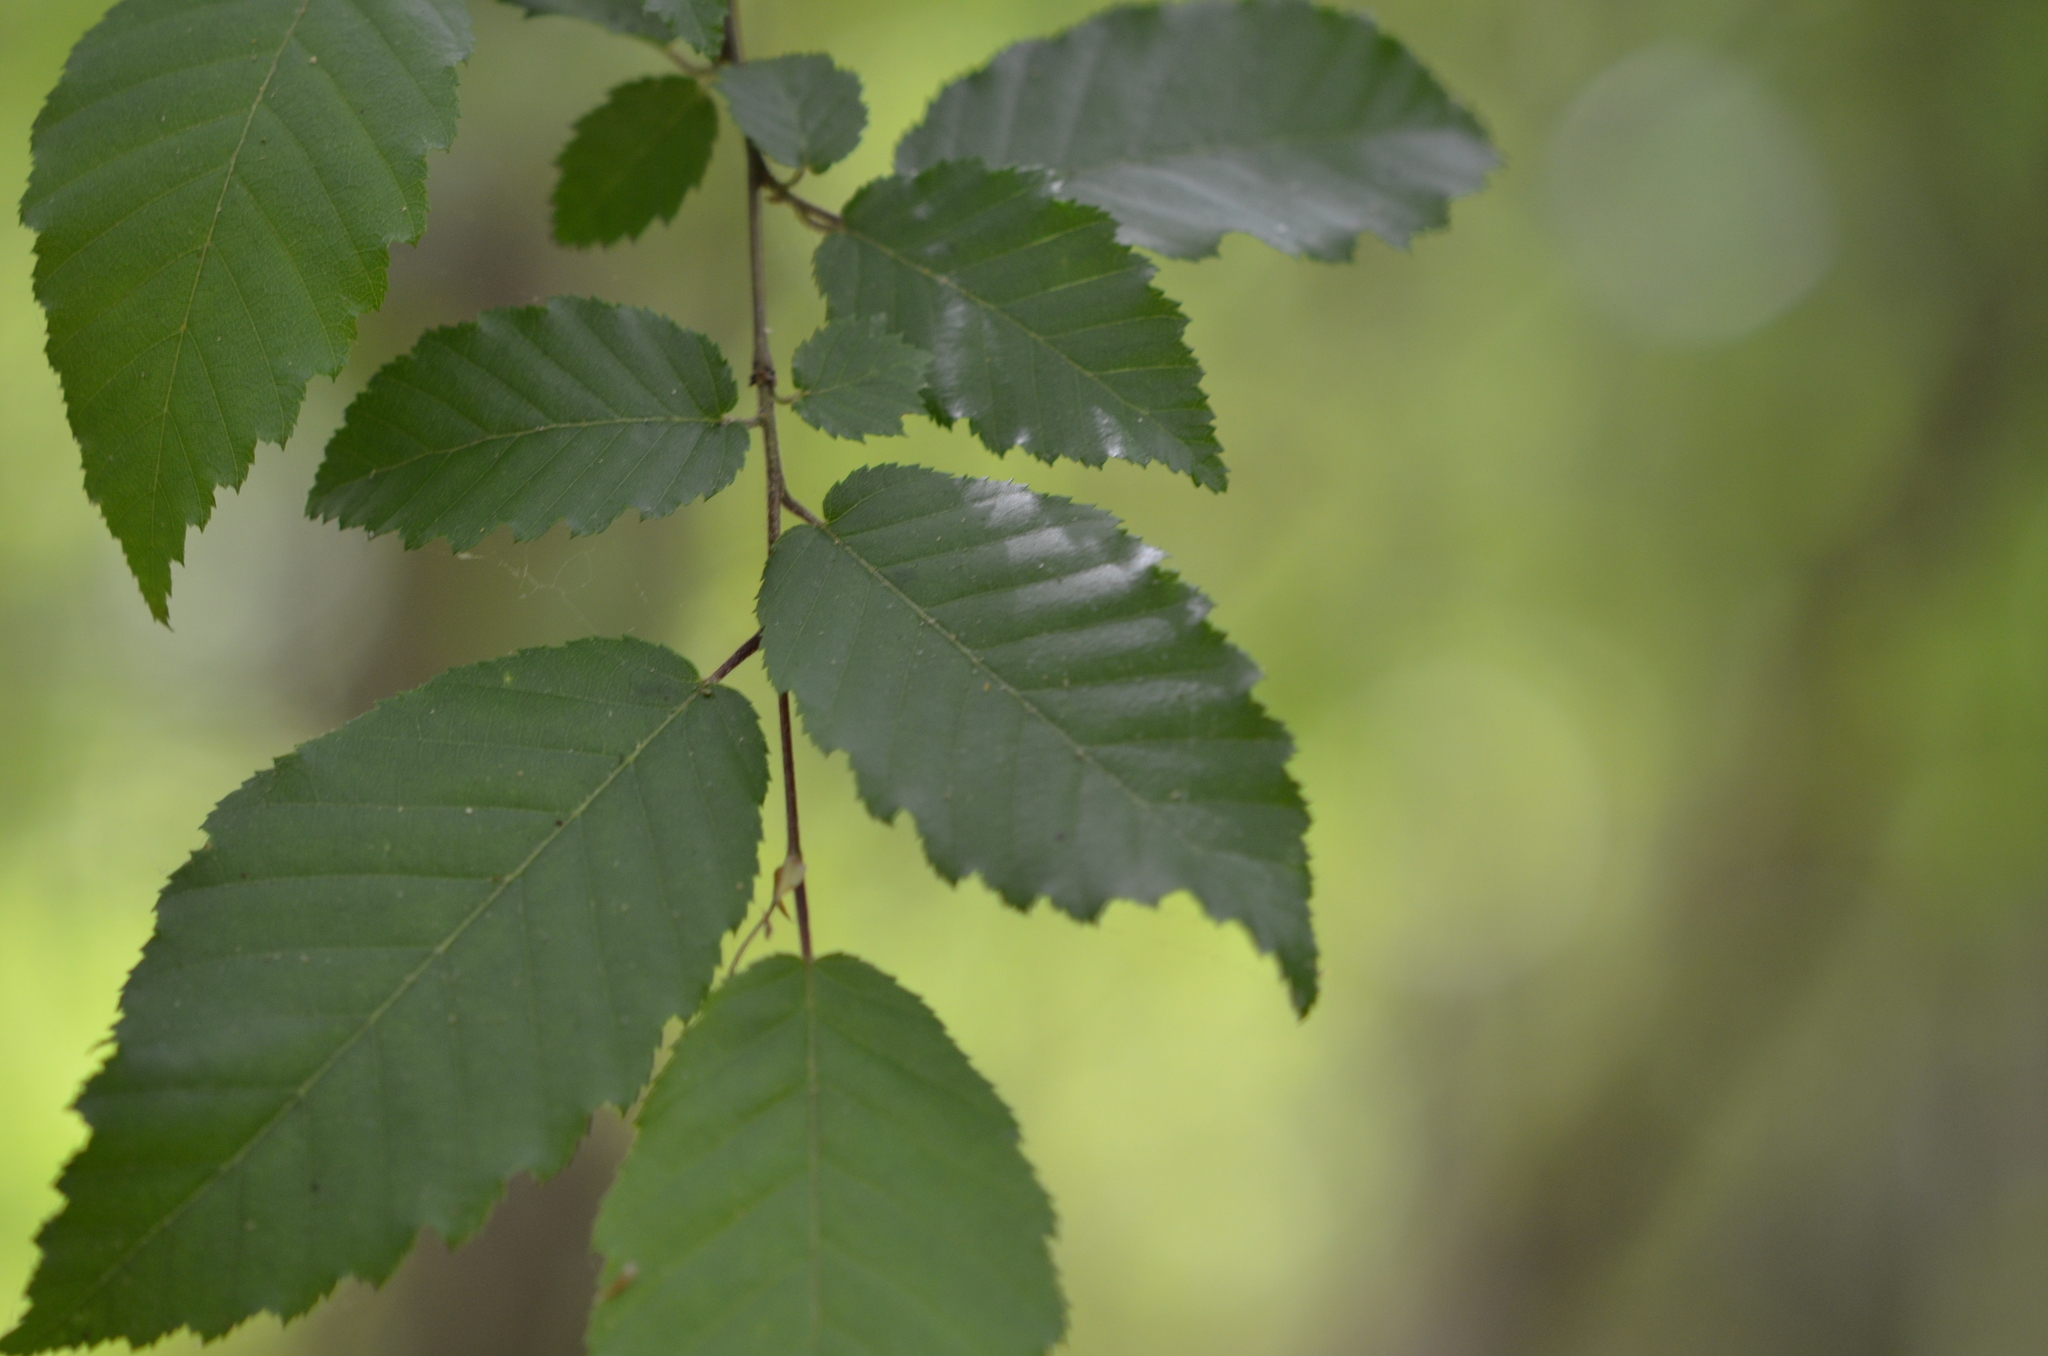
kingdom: Plantae
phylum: Tracheophyta
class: Magnoliopsida
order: Fagales
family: Betulaceae
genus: Carpinus
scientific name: Carpinus caroliniana
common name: American hornbeam
